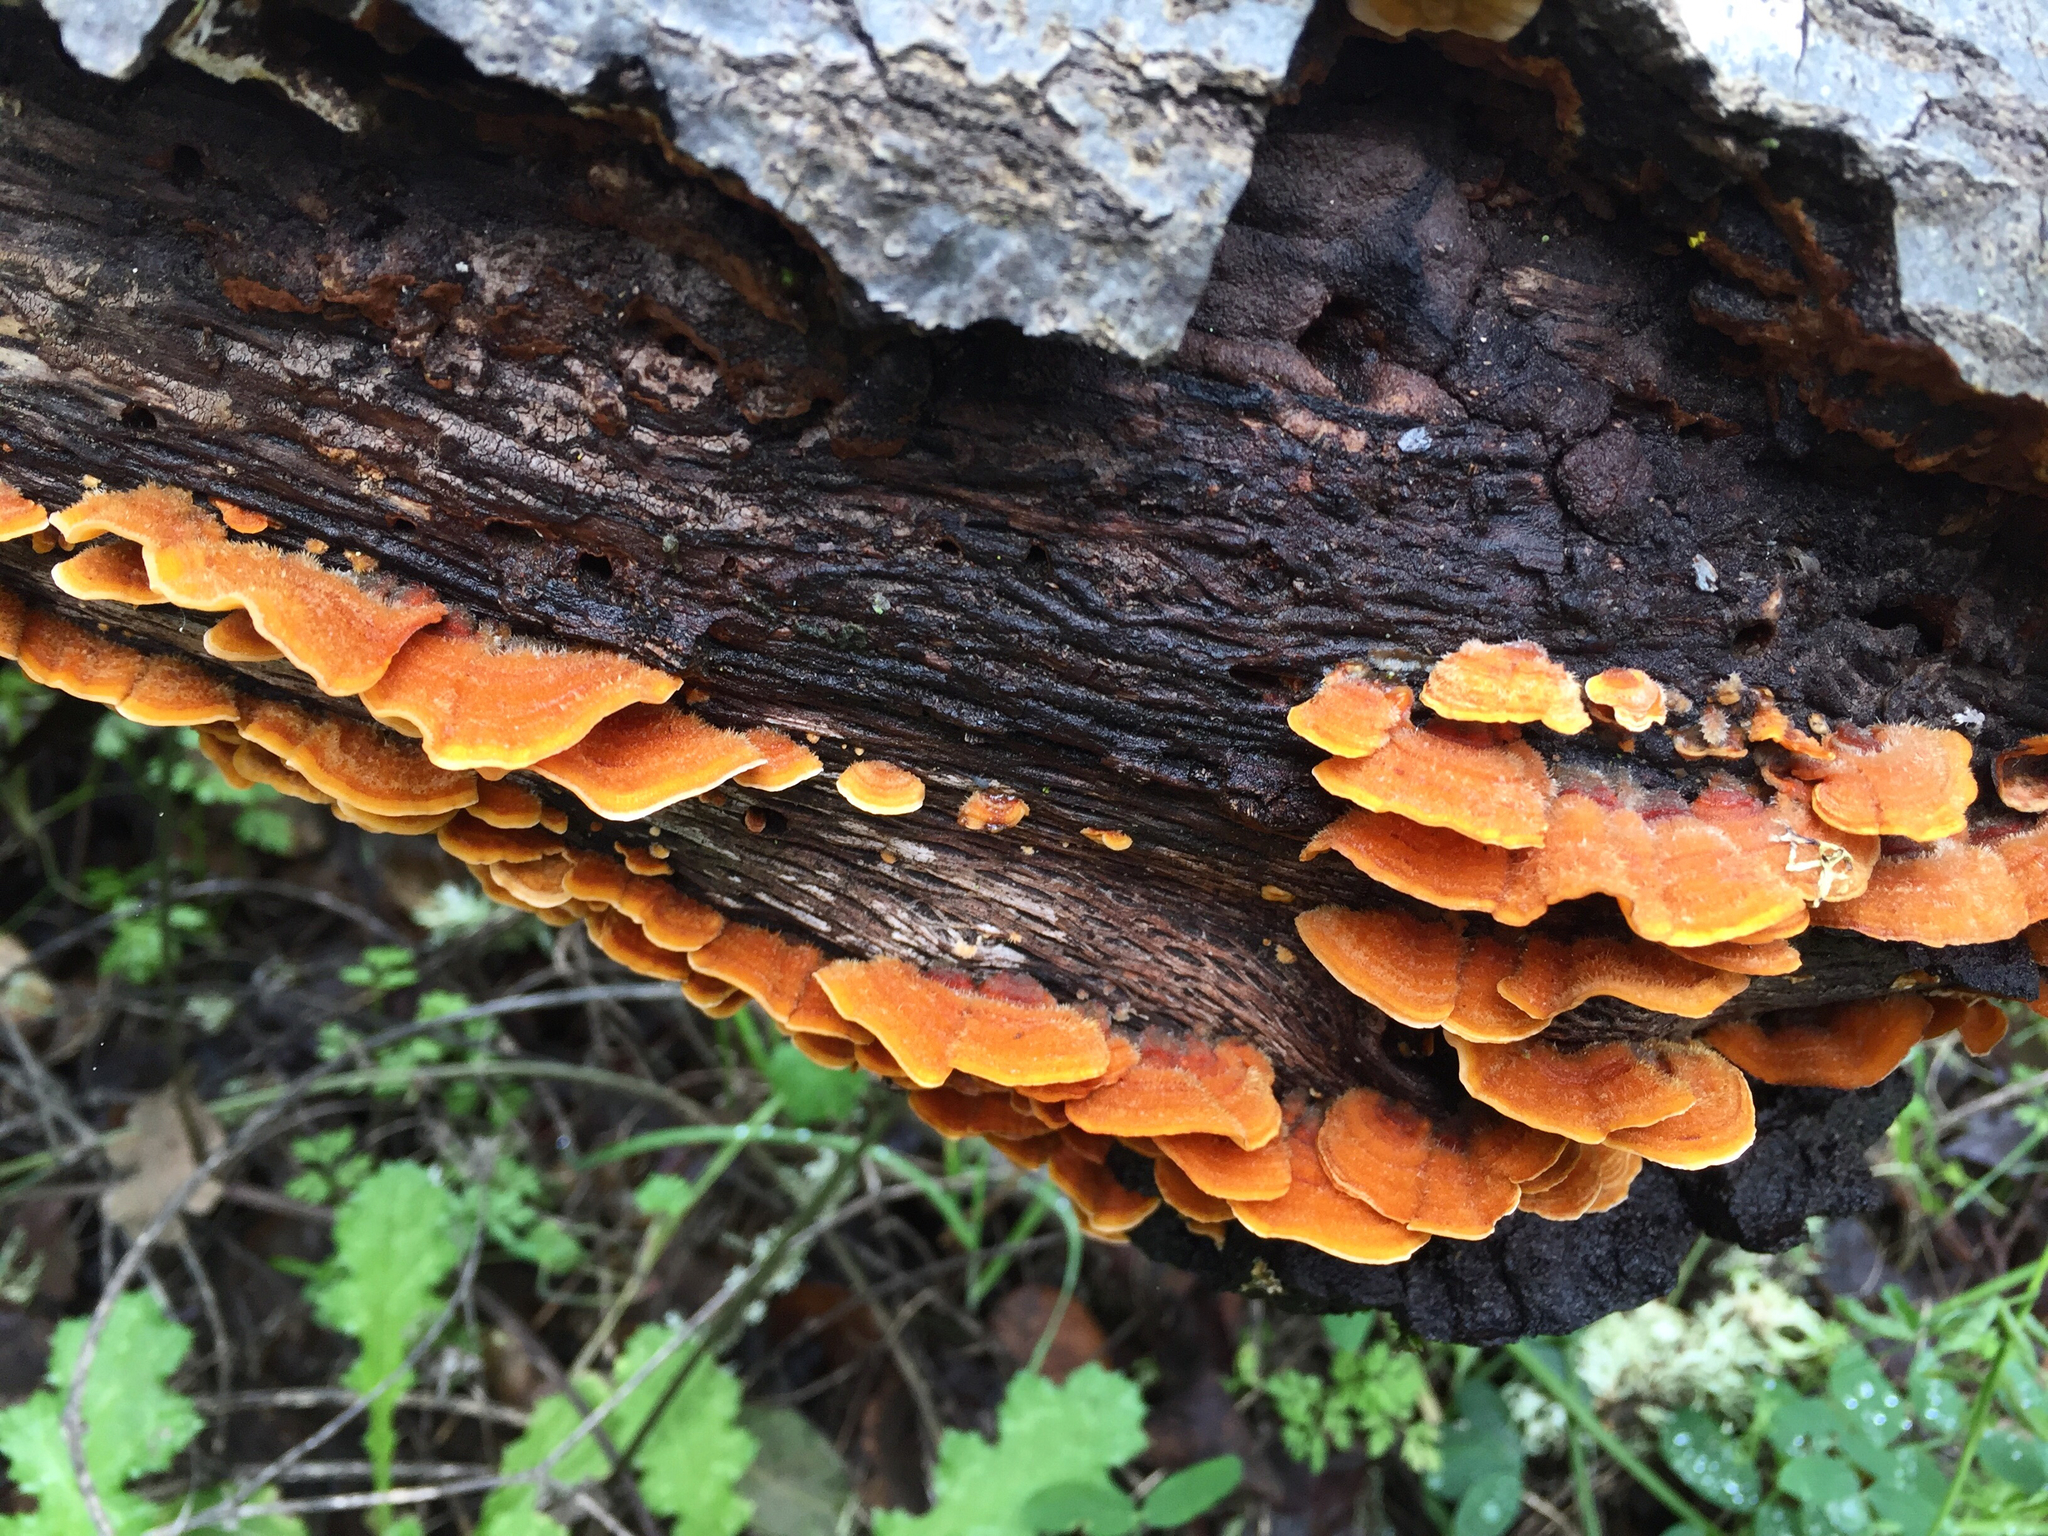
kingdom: Fungi
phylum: Basidiomycota
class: Agaricomycetes
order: Russulales
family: Stereaceae
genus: Stereum
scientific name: Stereum hirsutum
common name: Hairy curtain crust
